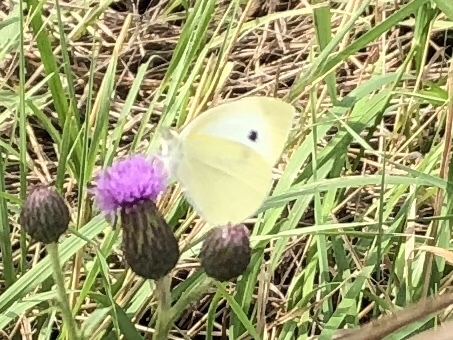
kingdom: Animalia
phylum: Arthropoda
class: Insecta
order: Lepidoptera
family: Pieridae
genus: Pieris
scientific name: Pieris rapae
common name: Small white
